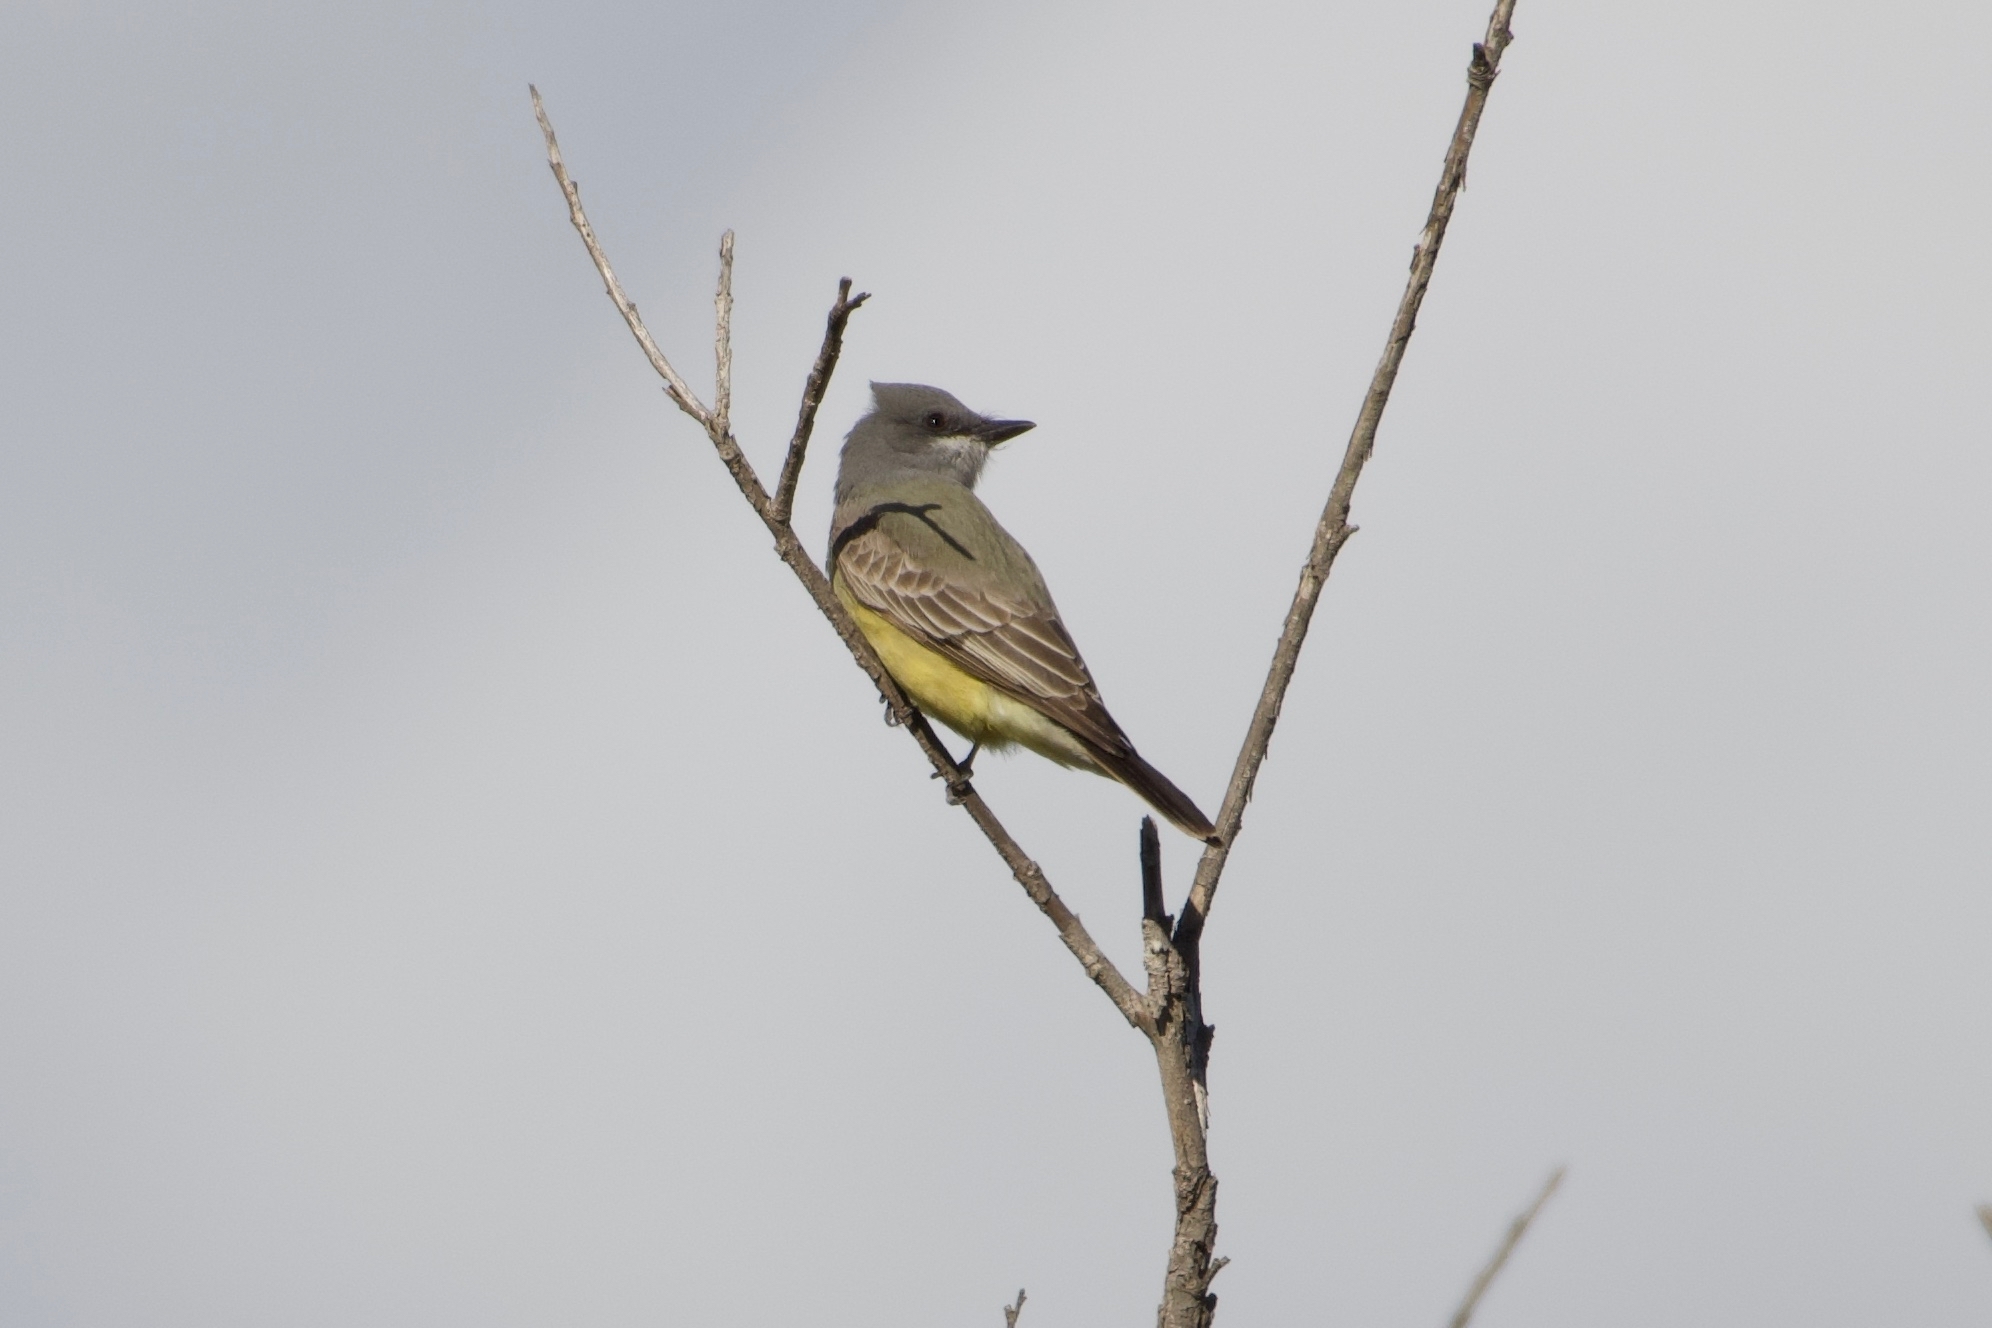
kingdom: Animalia
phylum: Chordata
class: Aves
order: Passeriformes
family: Tyrannidae
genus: Tyrannus
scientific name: Tyrannus vociferans
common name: Cassin's kingbird
